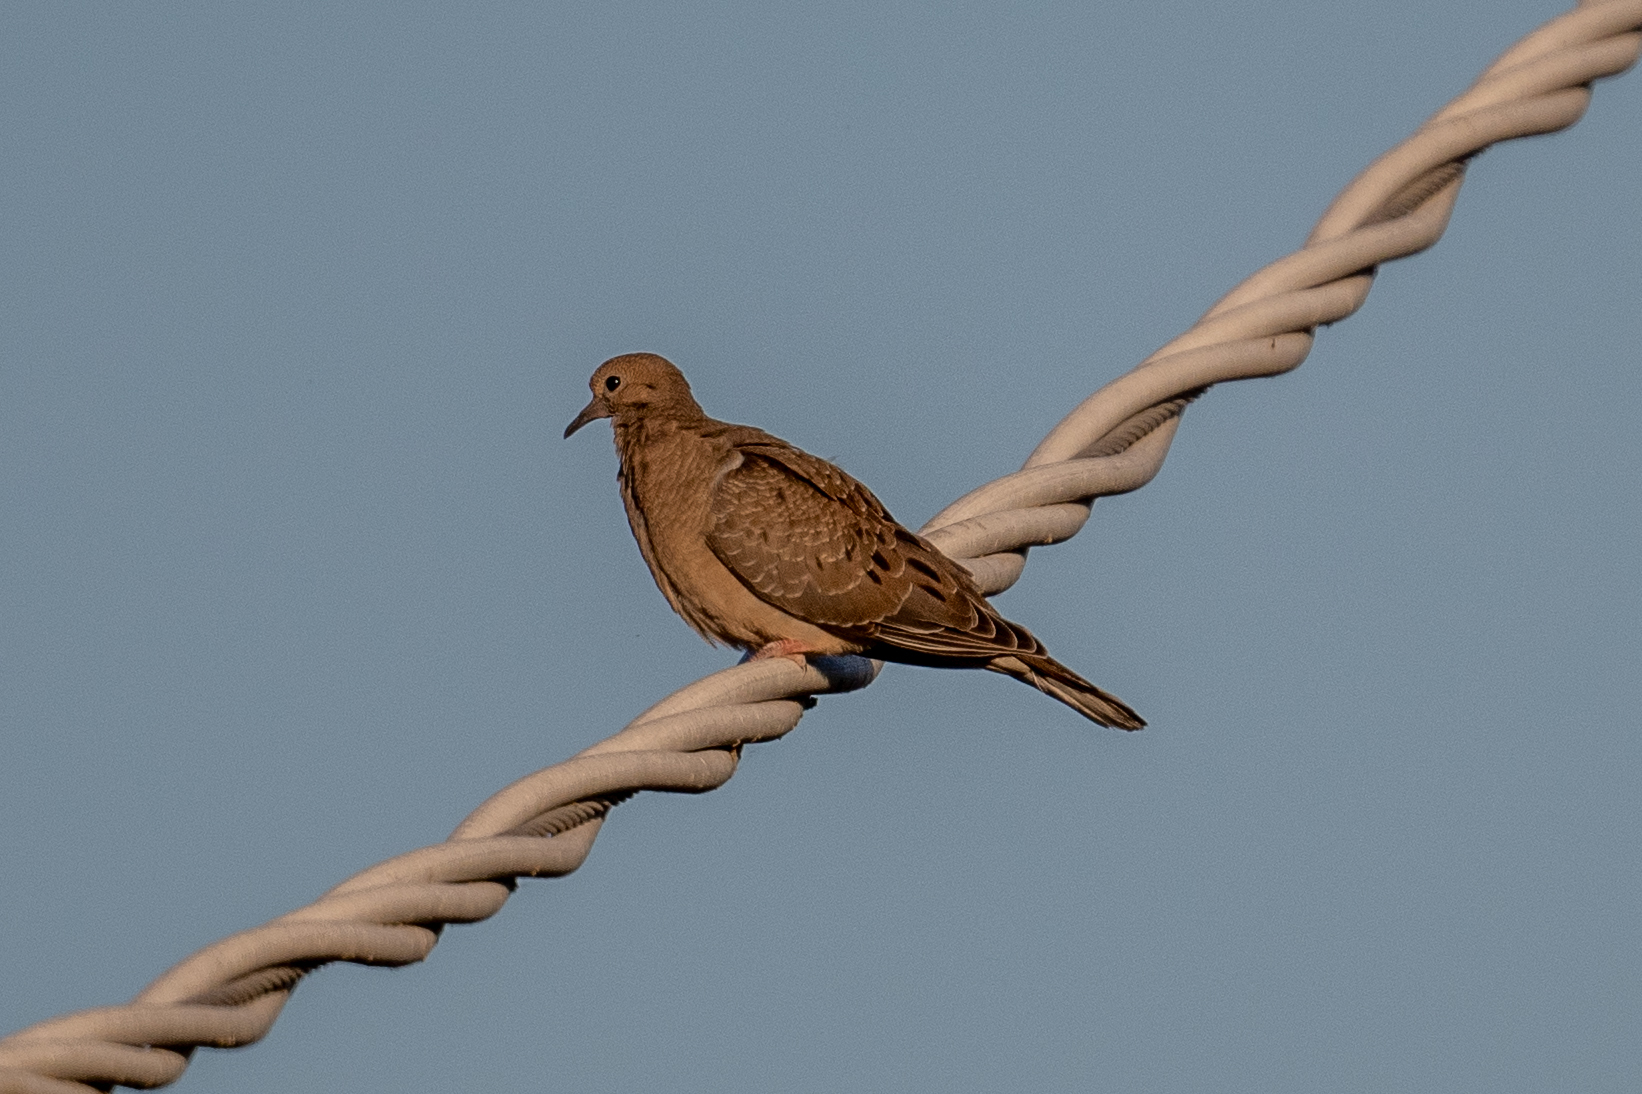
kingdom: Animalia
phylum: Chordata
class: Aves
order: Columbiformes
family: Columbidae
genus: Zenaida
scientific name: Zenaida macroura
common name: Mourning dove
